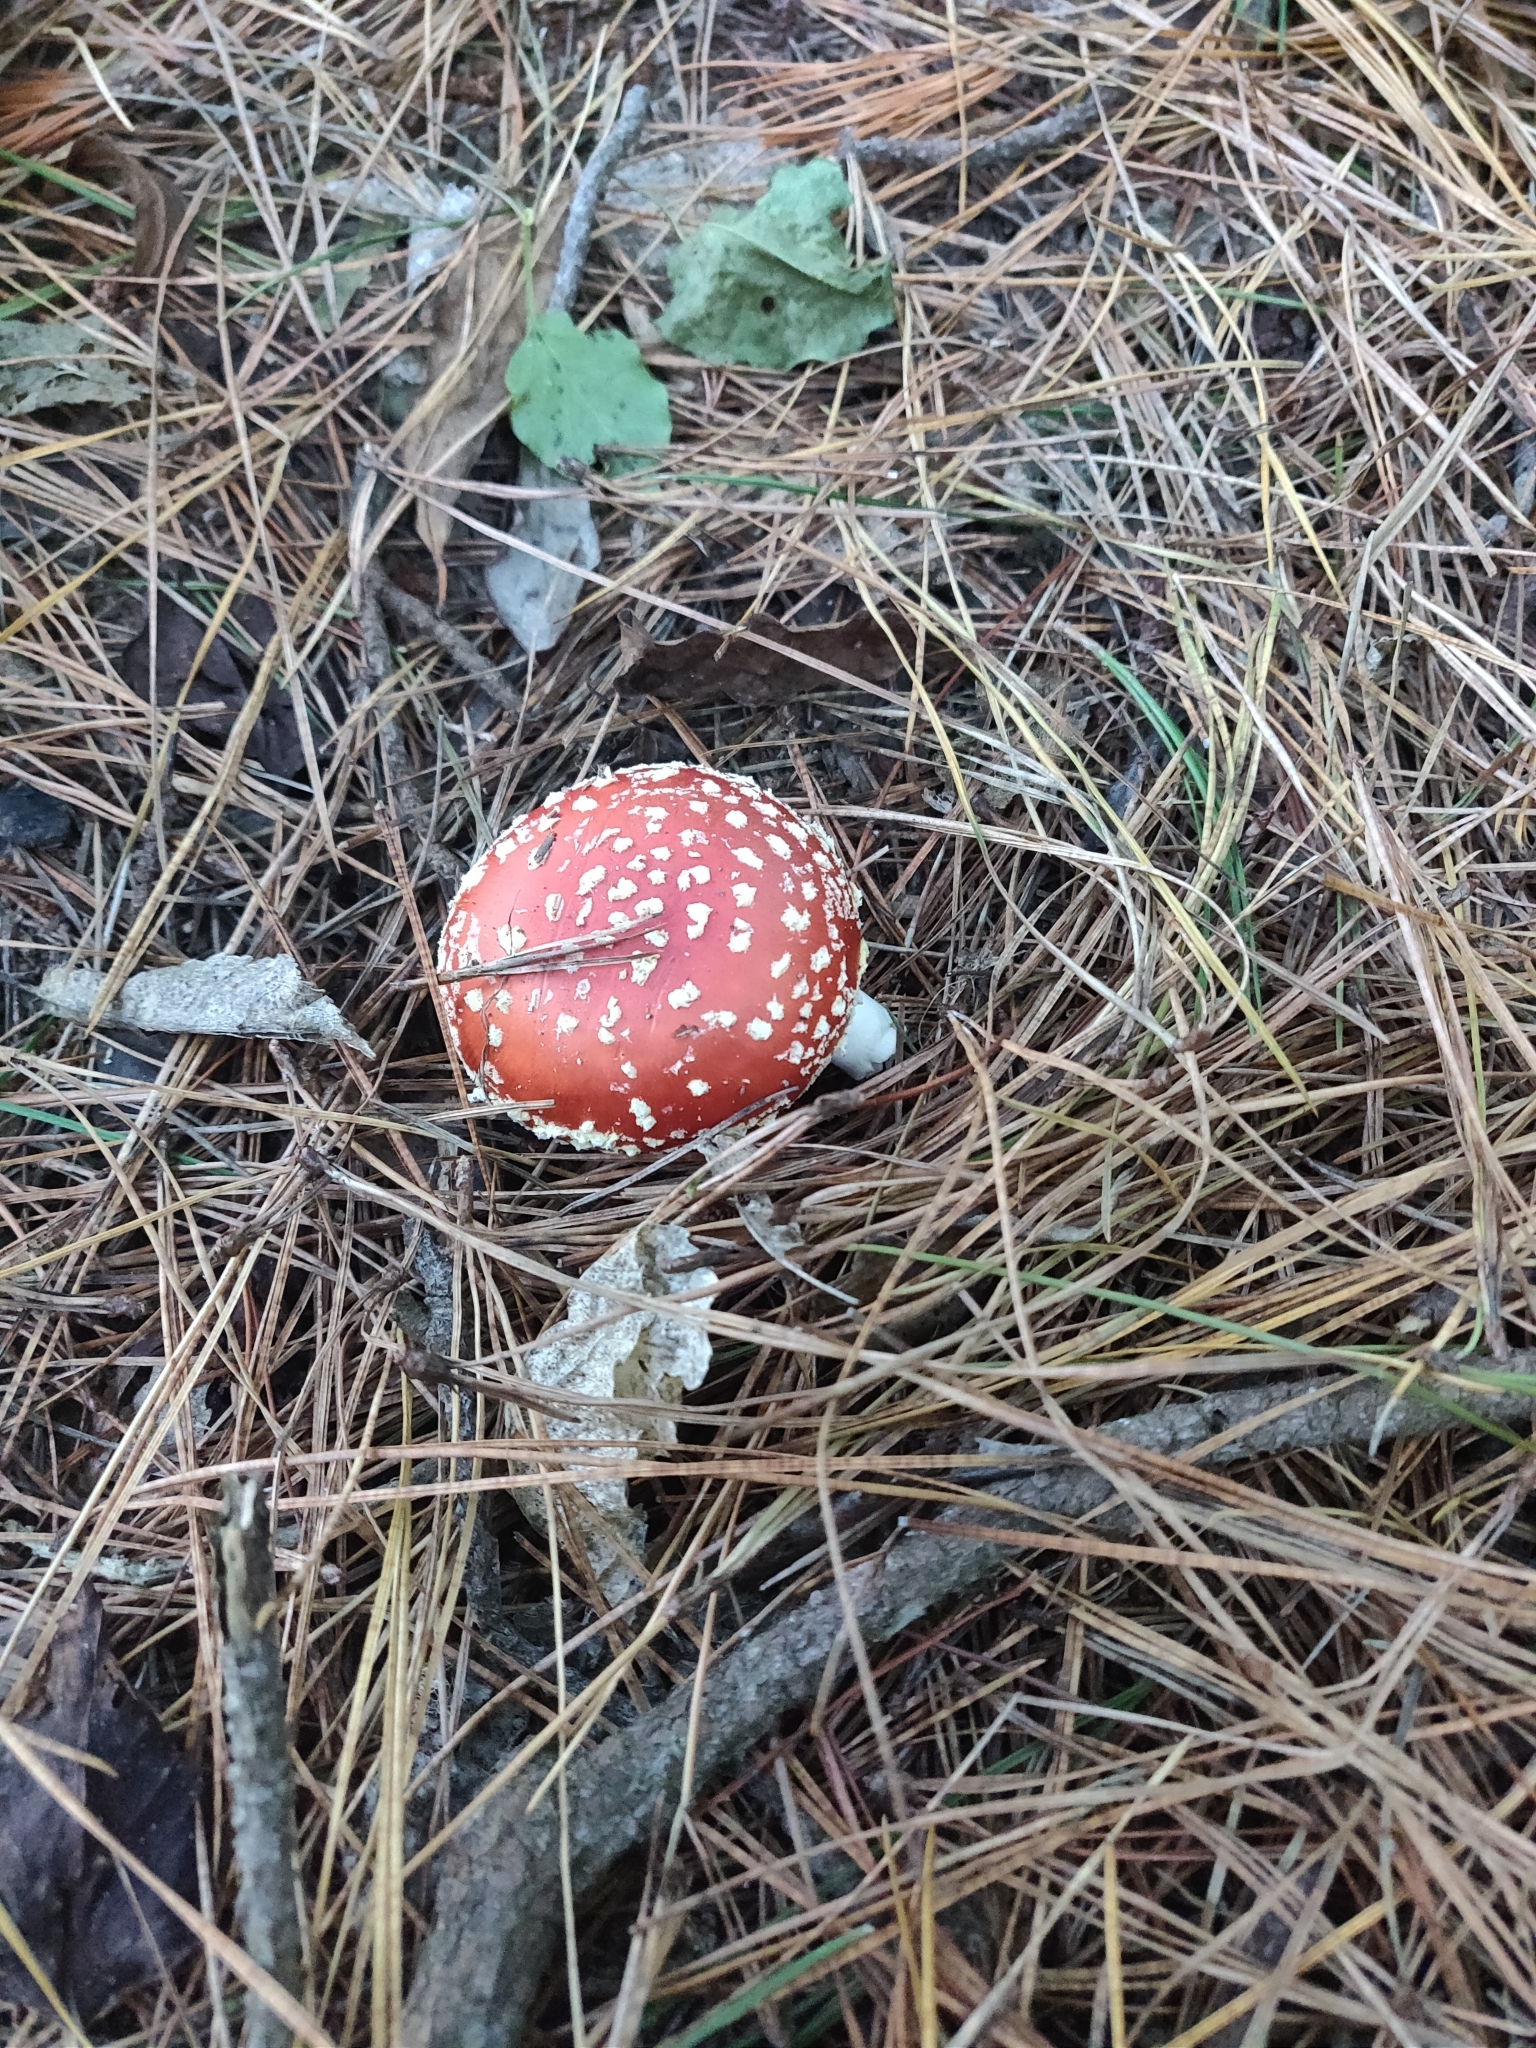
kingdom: Fungi
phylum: Basidiomycota
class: Agaricomycetes
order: Agaricales
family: Amanitaceae
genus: Amanita
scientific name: Amanita muscaria
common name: Fly agaric
